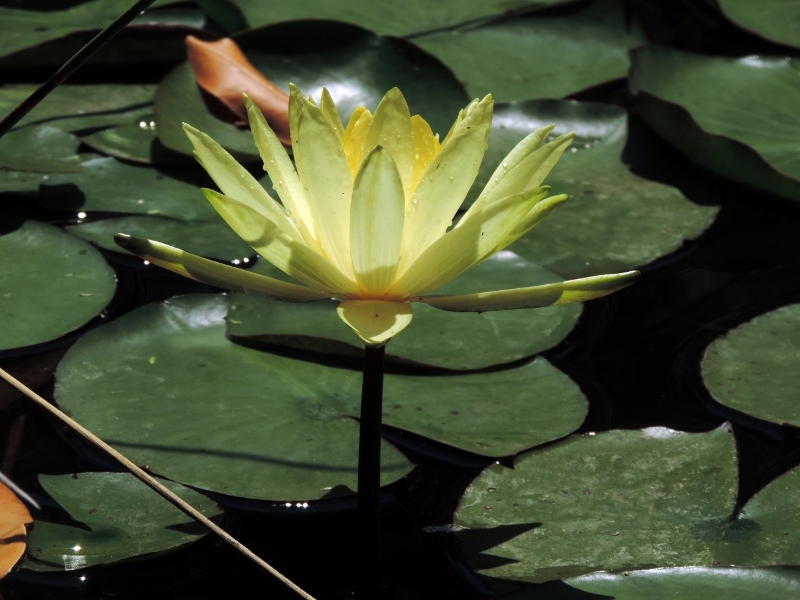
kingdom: Plantae
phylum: Tracheophyta
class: Magnoliopsida
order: Nymphaeales
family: Nymphaeaceae
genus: Nymphaea
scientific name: Nymphaea mexicana
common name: Banana water-lily
